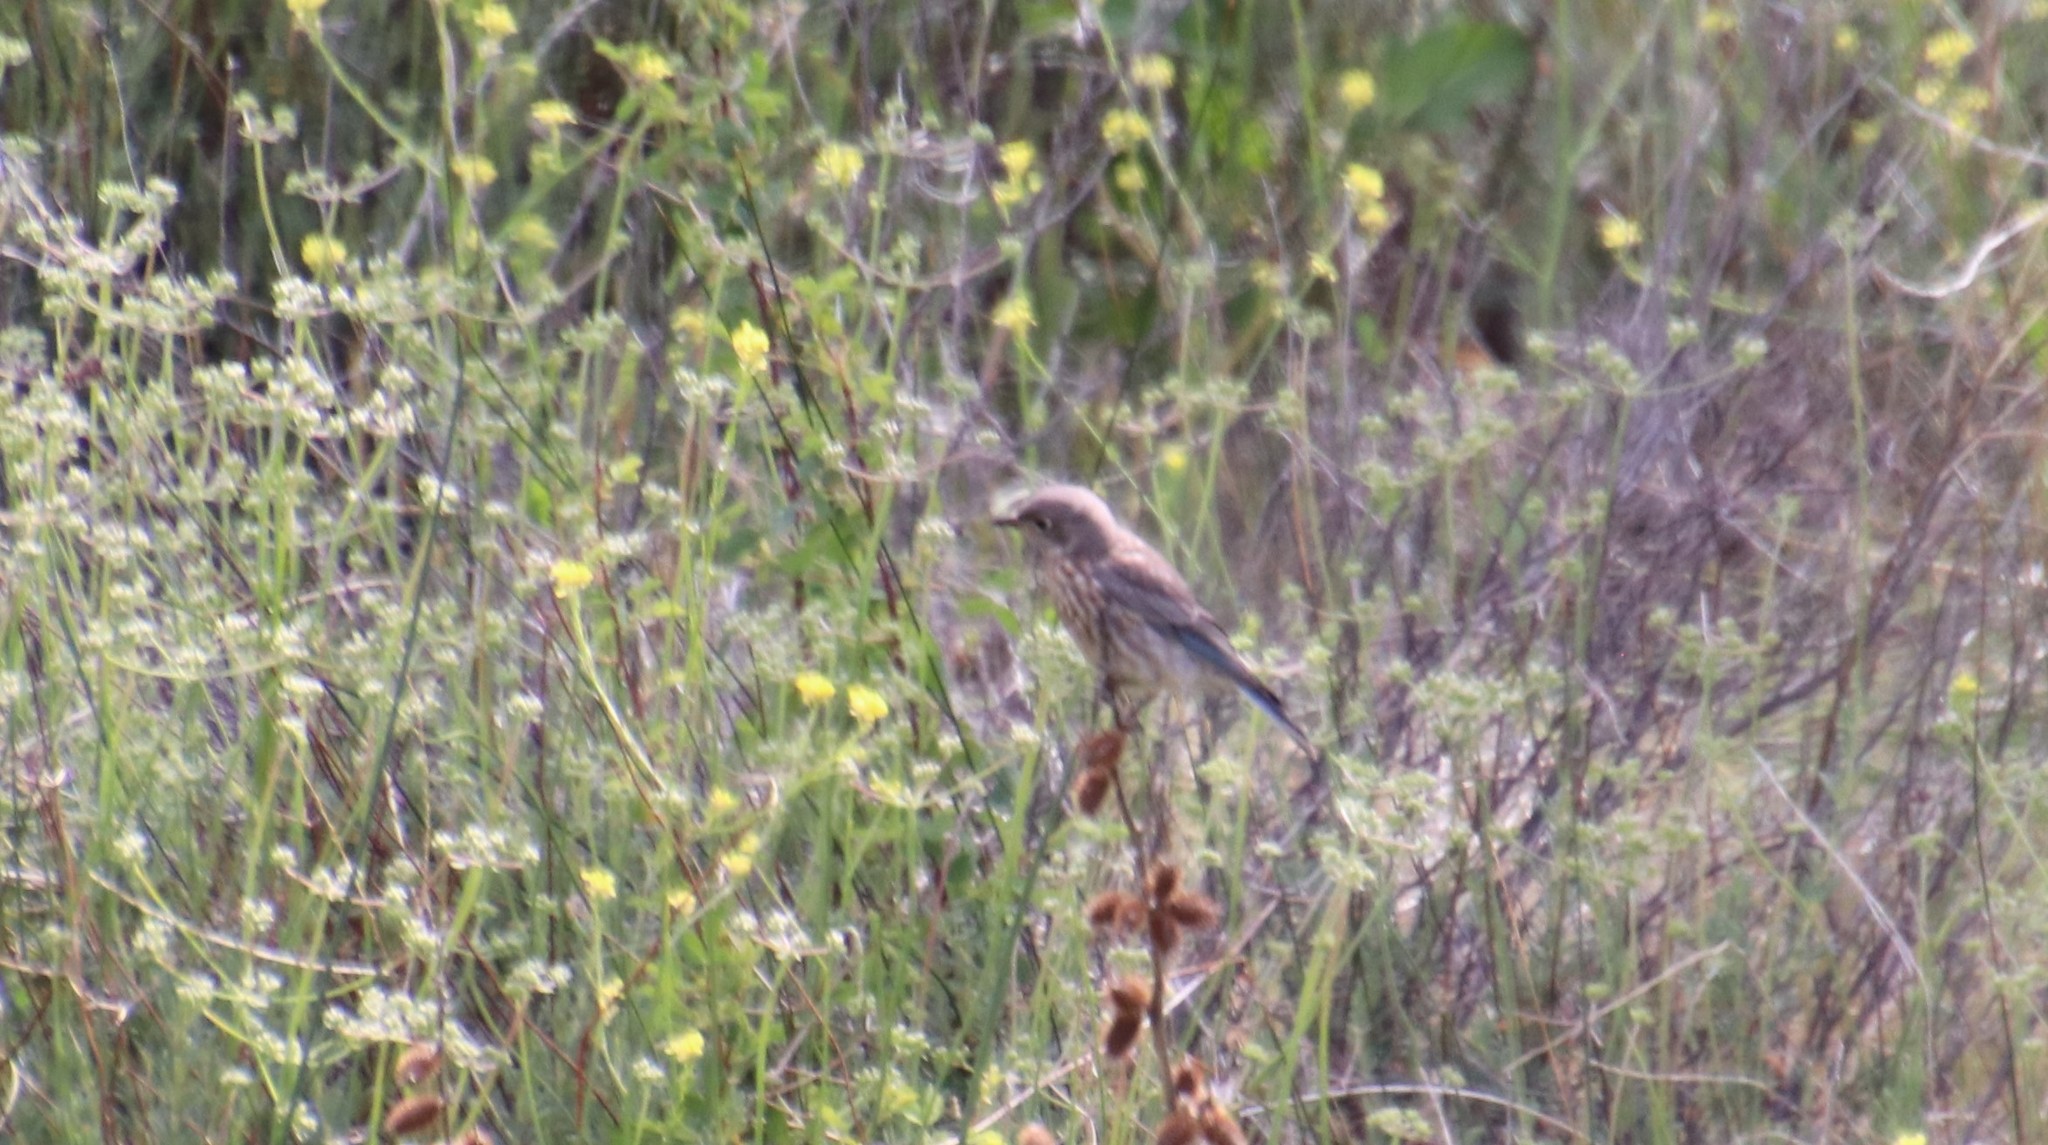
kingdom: Animalia
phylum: Chordata
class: Aves
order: Passeriformes
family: Turdidae
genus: Sialia
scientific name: Sialia mexicana
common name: Western bluebird
